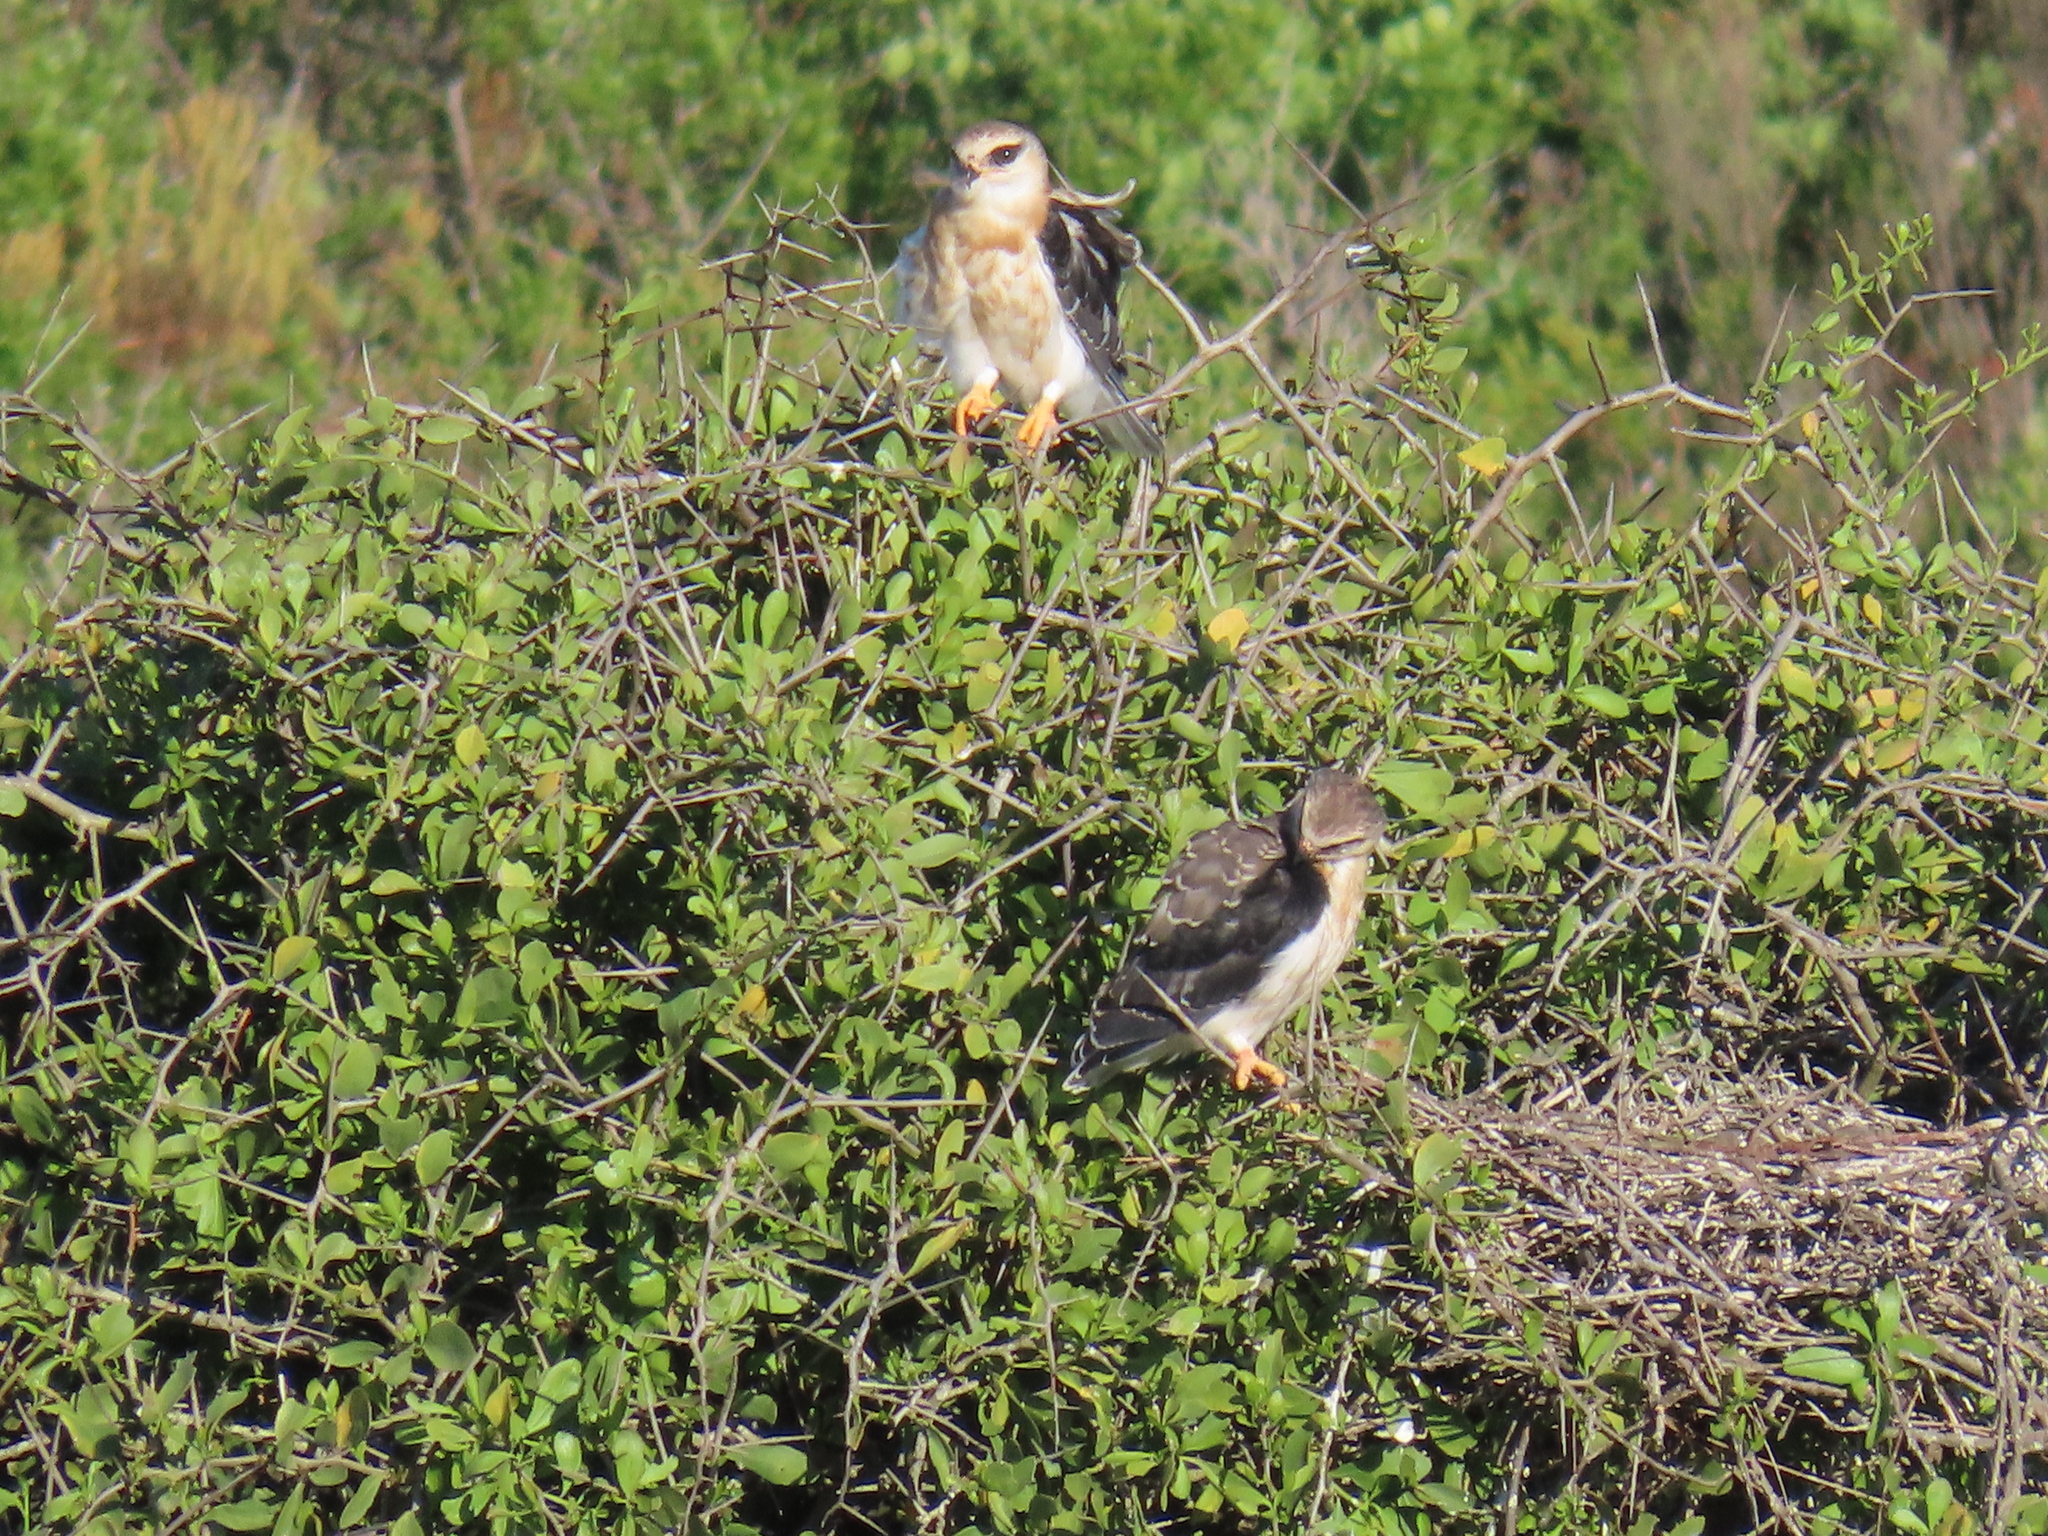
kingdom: Animalia
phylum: Chordata
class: Aves
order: Accipitriformes
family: Accipitridae
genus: Elanus
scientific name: Elanus caeruleus
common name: Black-winged kite
